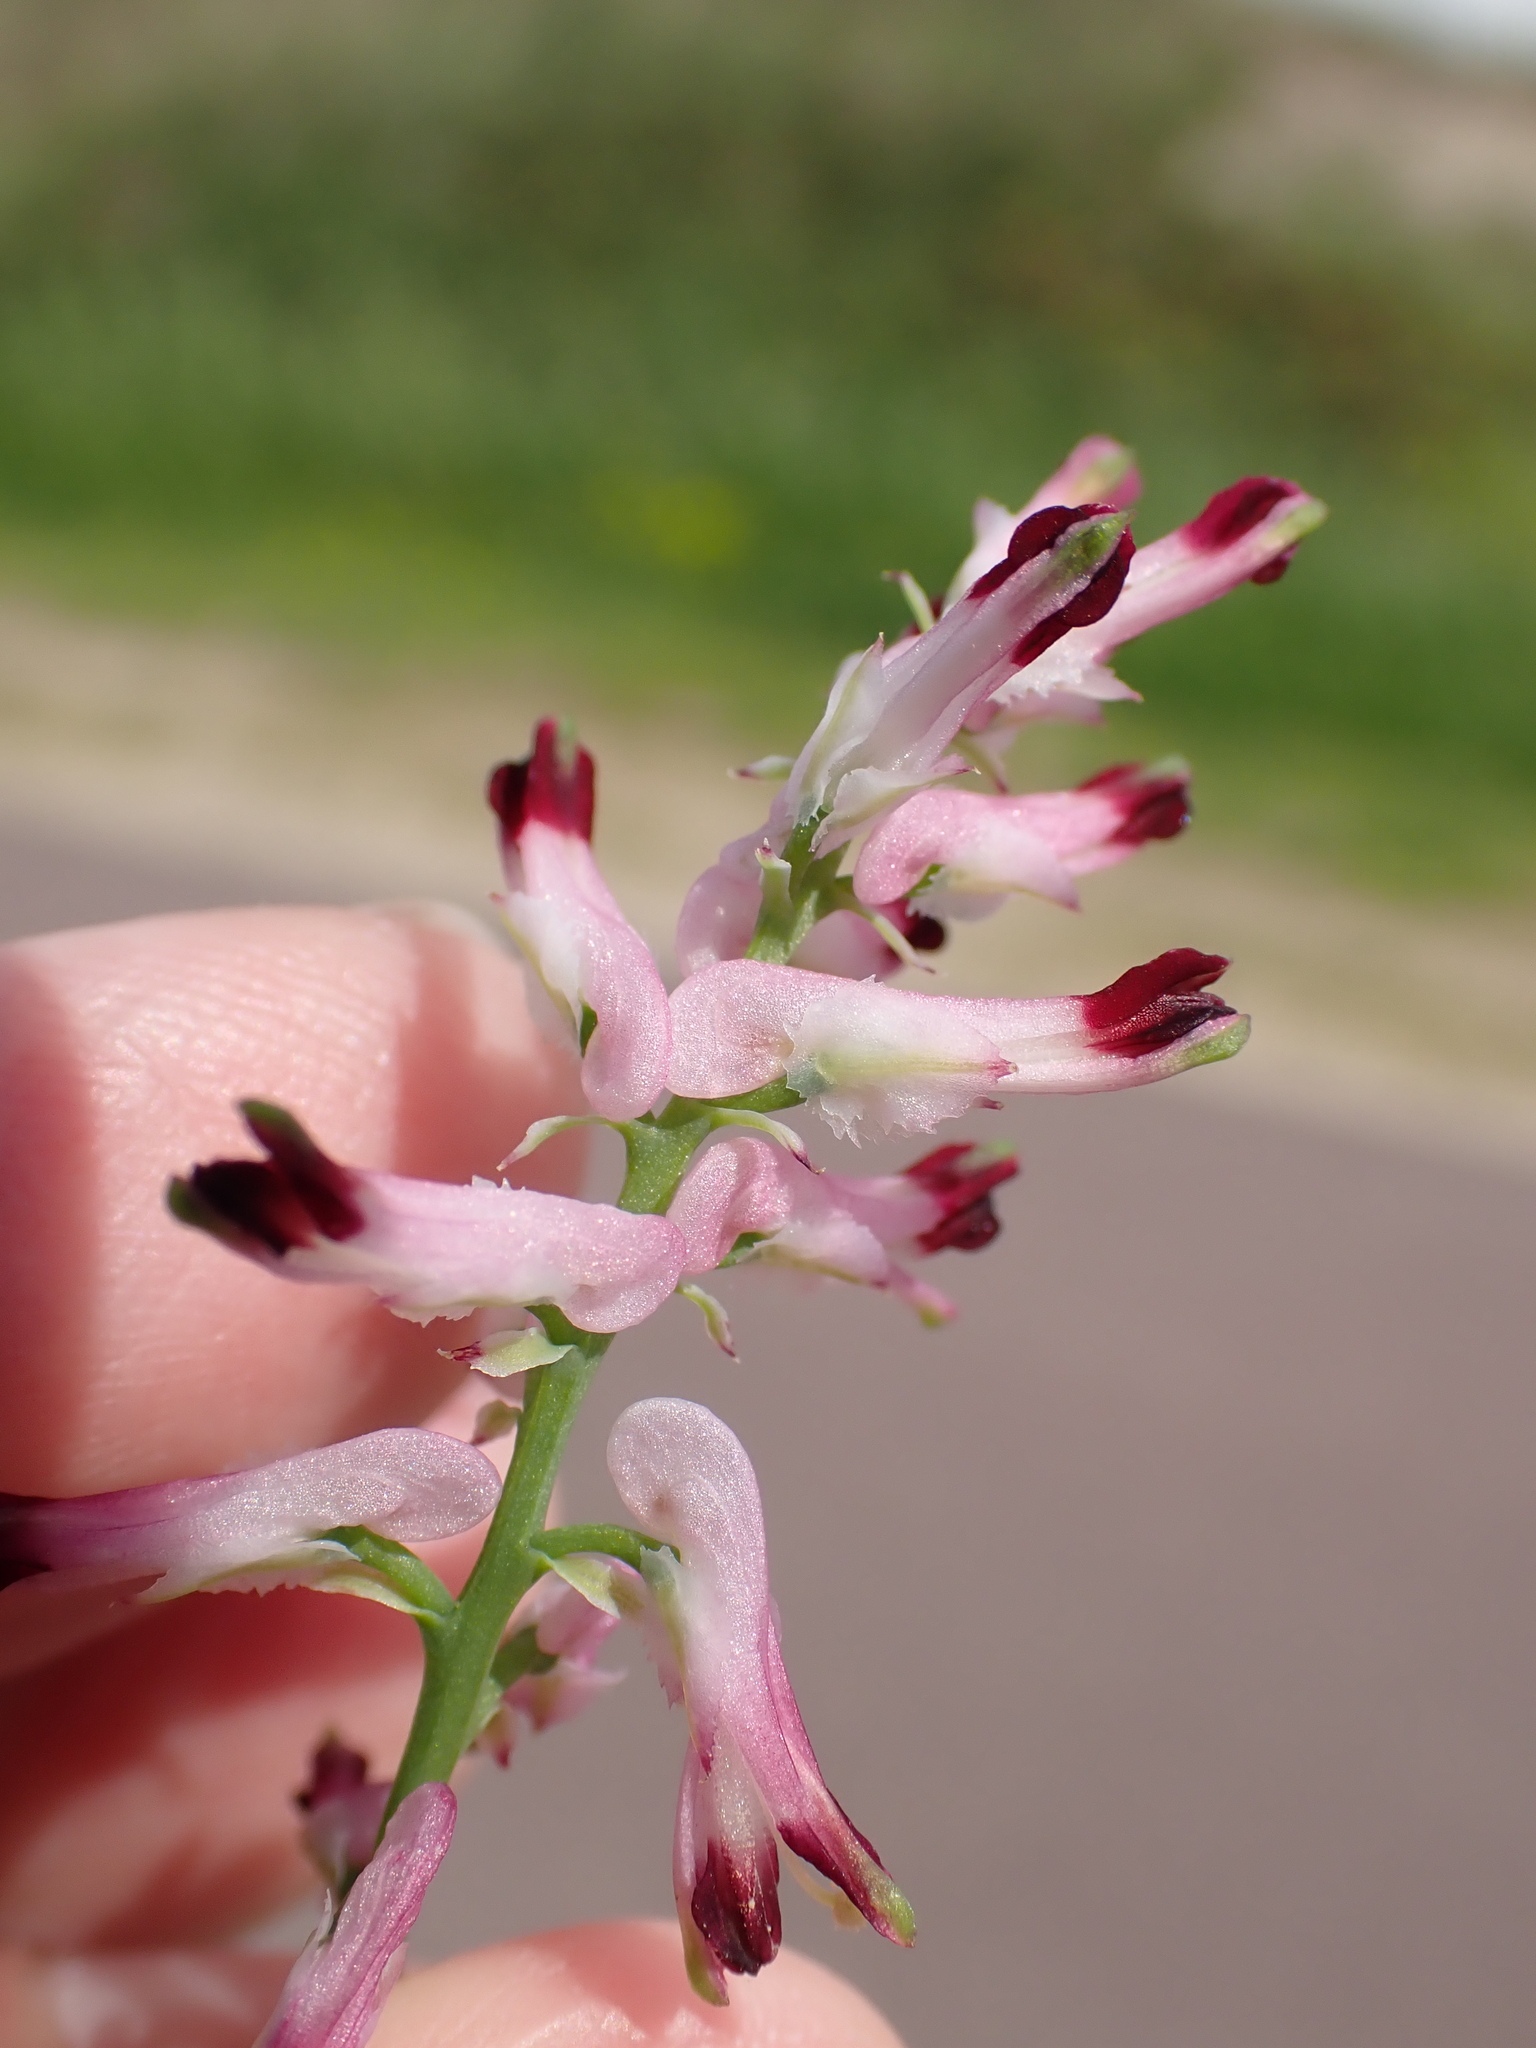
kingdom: Plantae
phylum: Tracheophyta
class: Magnoliopsida
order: Ranunculales
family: Papaveraceae
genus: Fumaria
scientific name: Fumaria muralis
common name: Common ramping-fumitory
